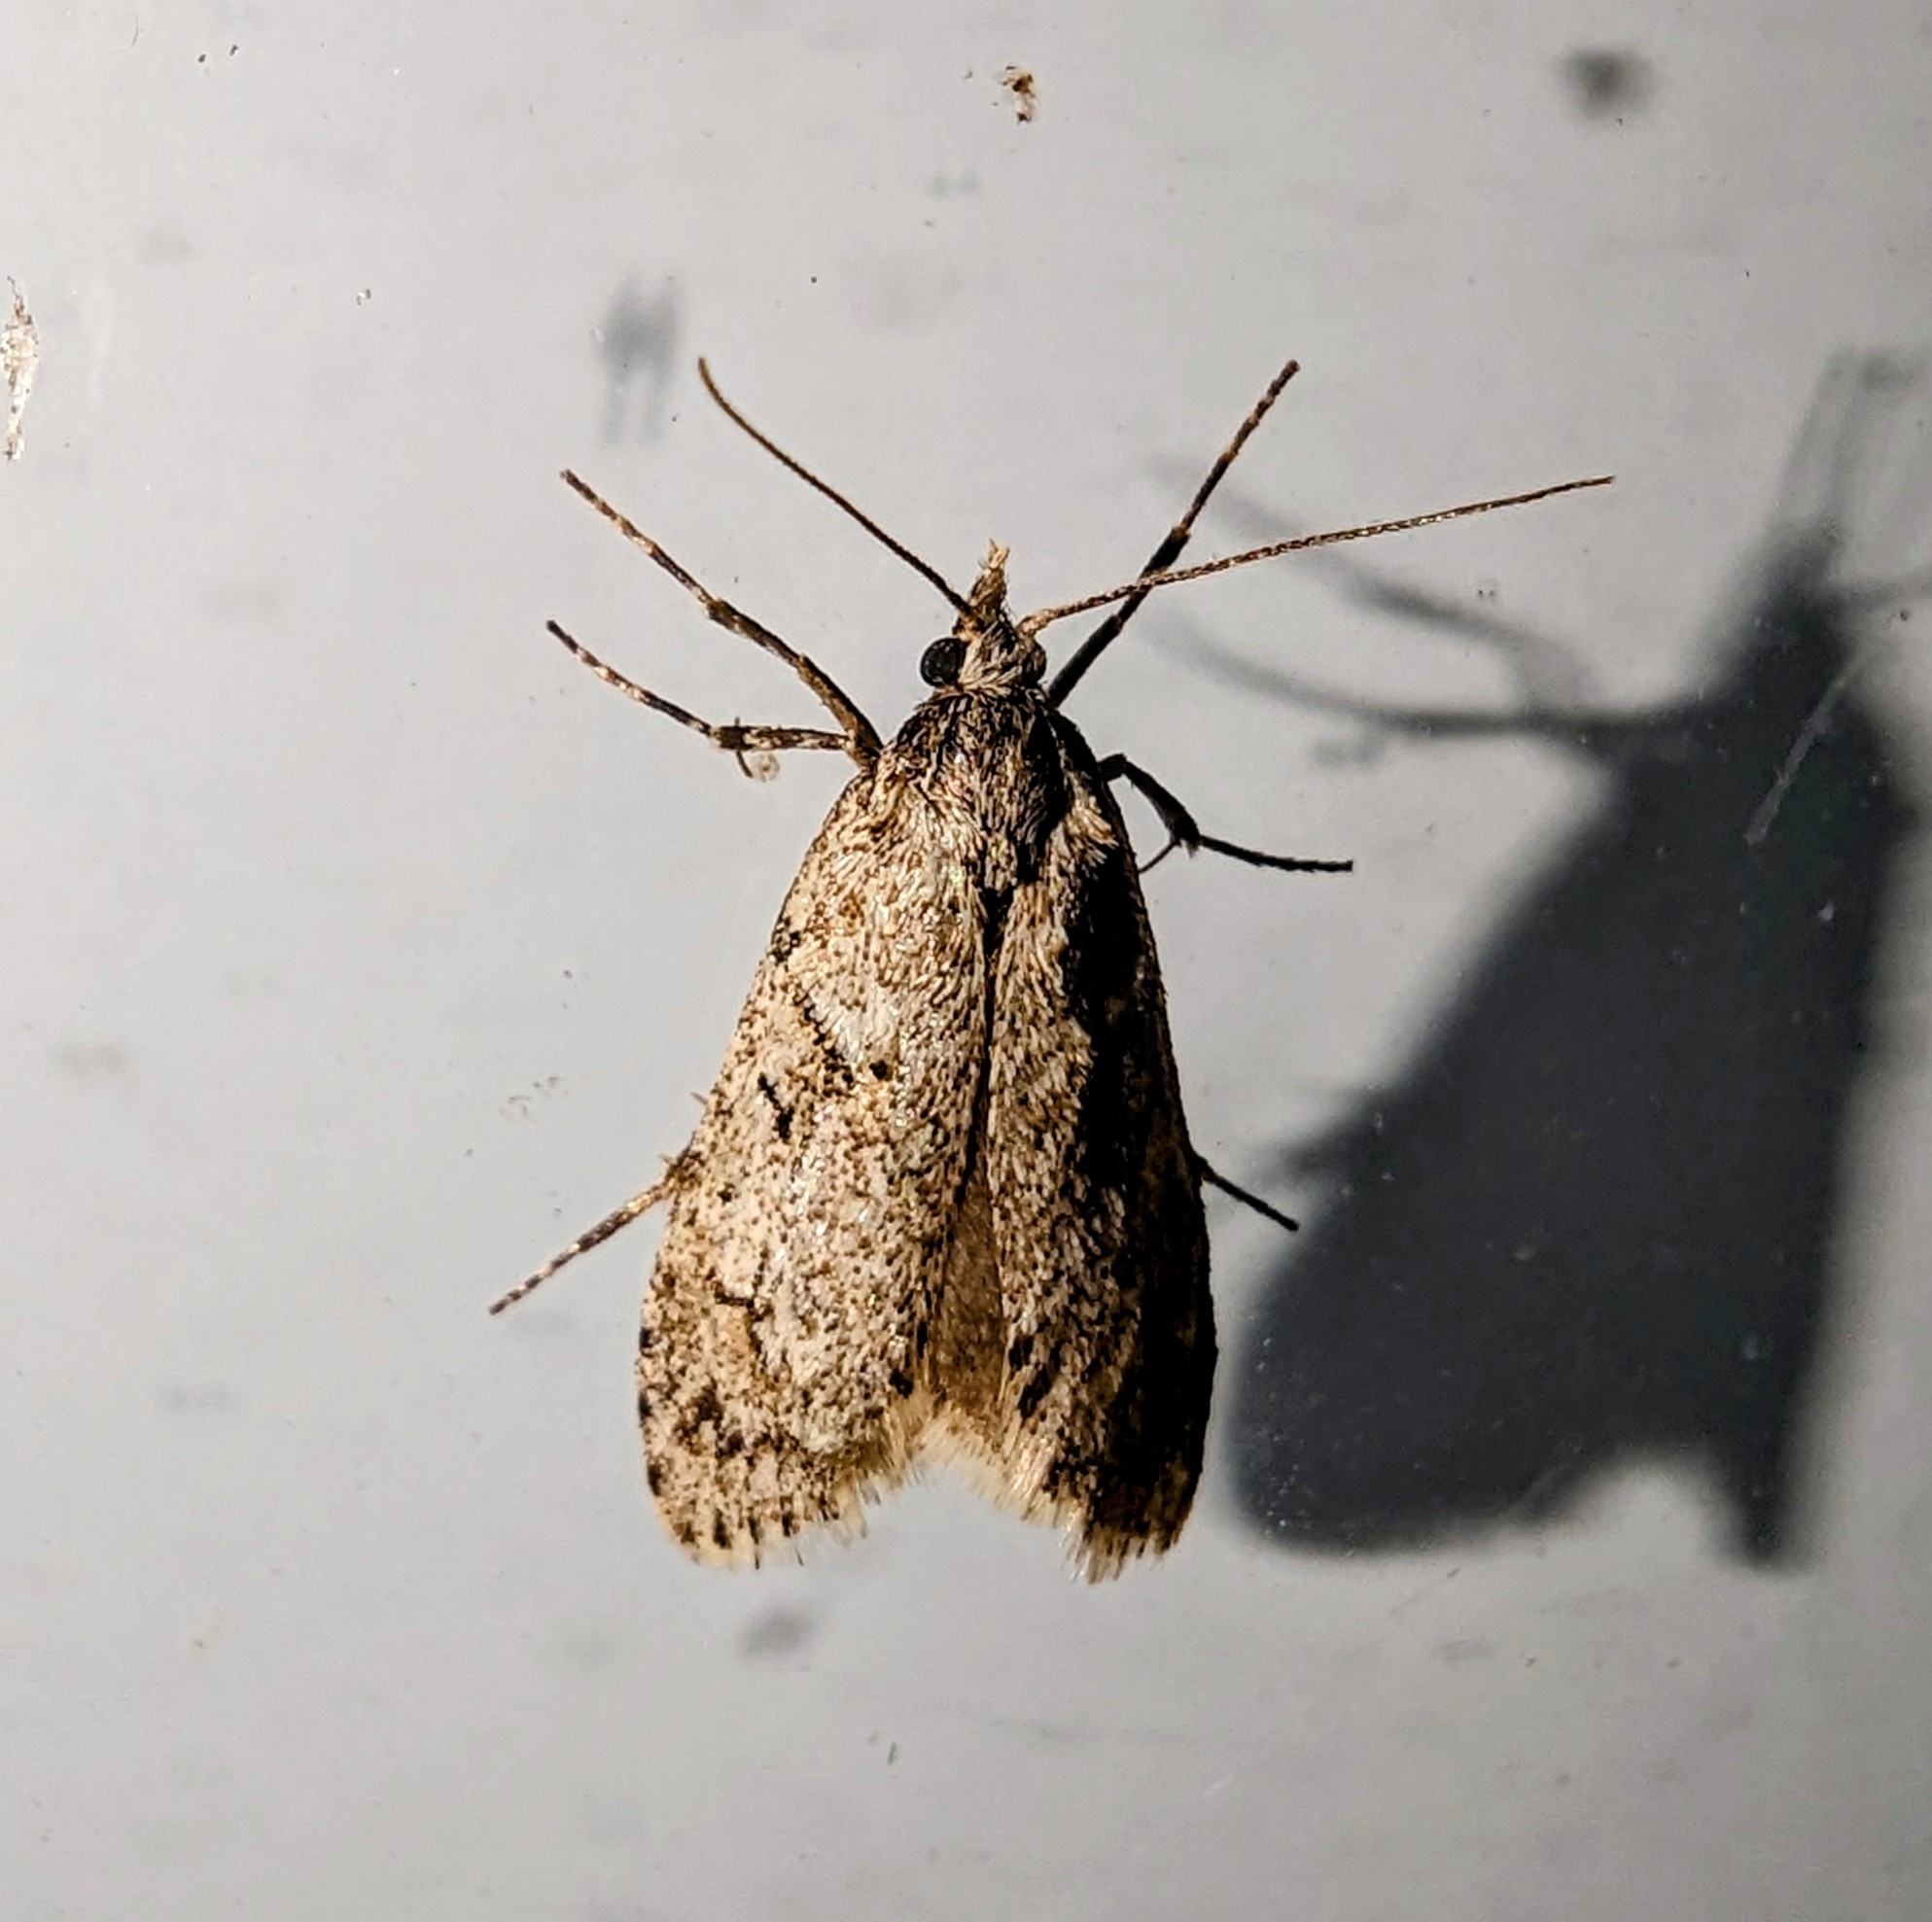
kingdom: Animalia
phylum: Arthropoda
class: Insecta
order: Lepidoptera
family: Lypusidae
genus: Diurnea
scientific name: Diurnea fagella
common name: March tubic
